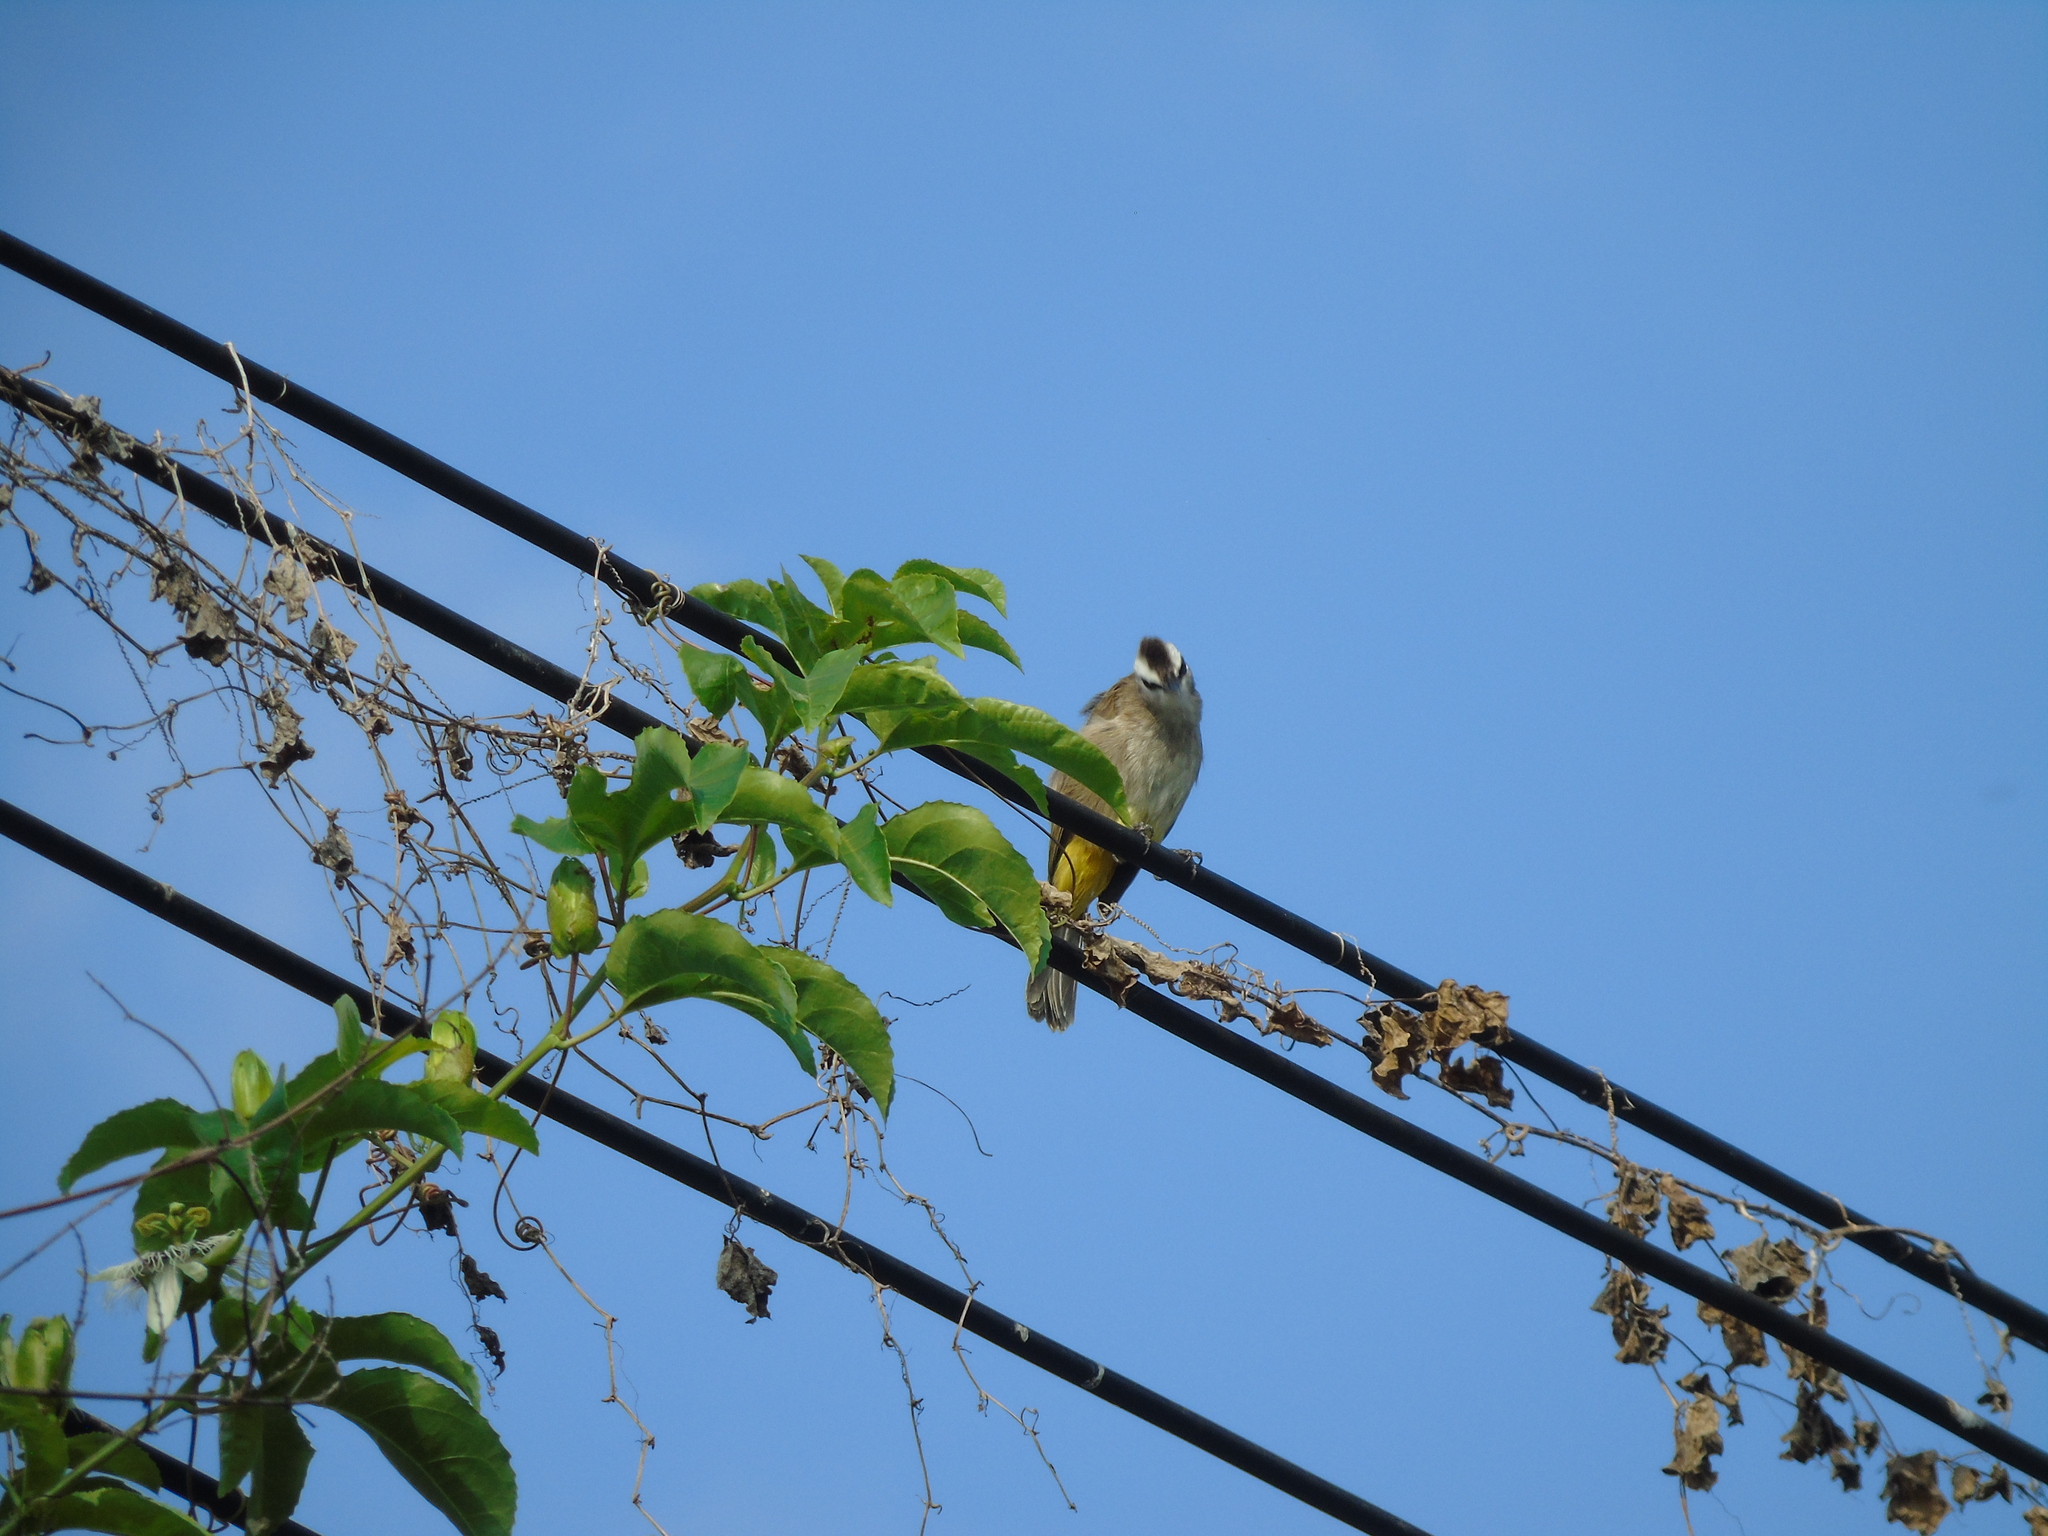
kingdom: Animalia
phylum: Chordata
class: Aves
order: Passeriformes
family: Pycnonotidae
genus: Pycnonotus
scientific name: Pycnonotus goiavier
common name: Yellow-vented bulbul
